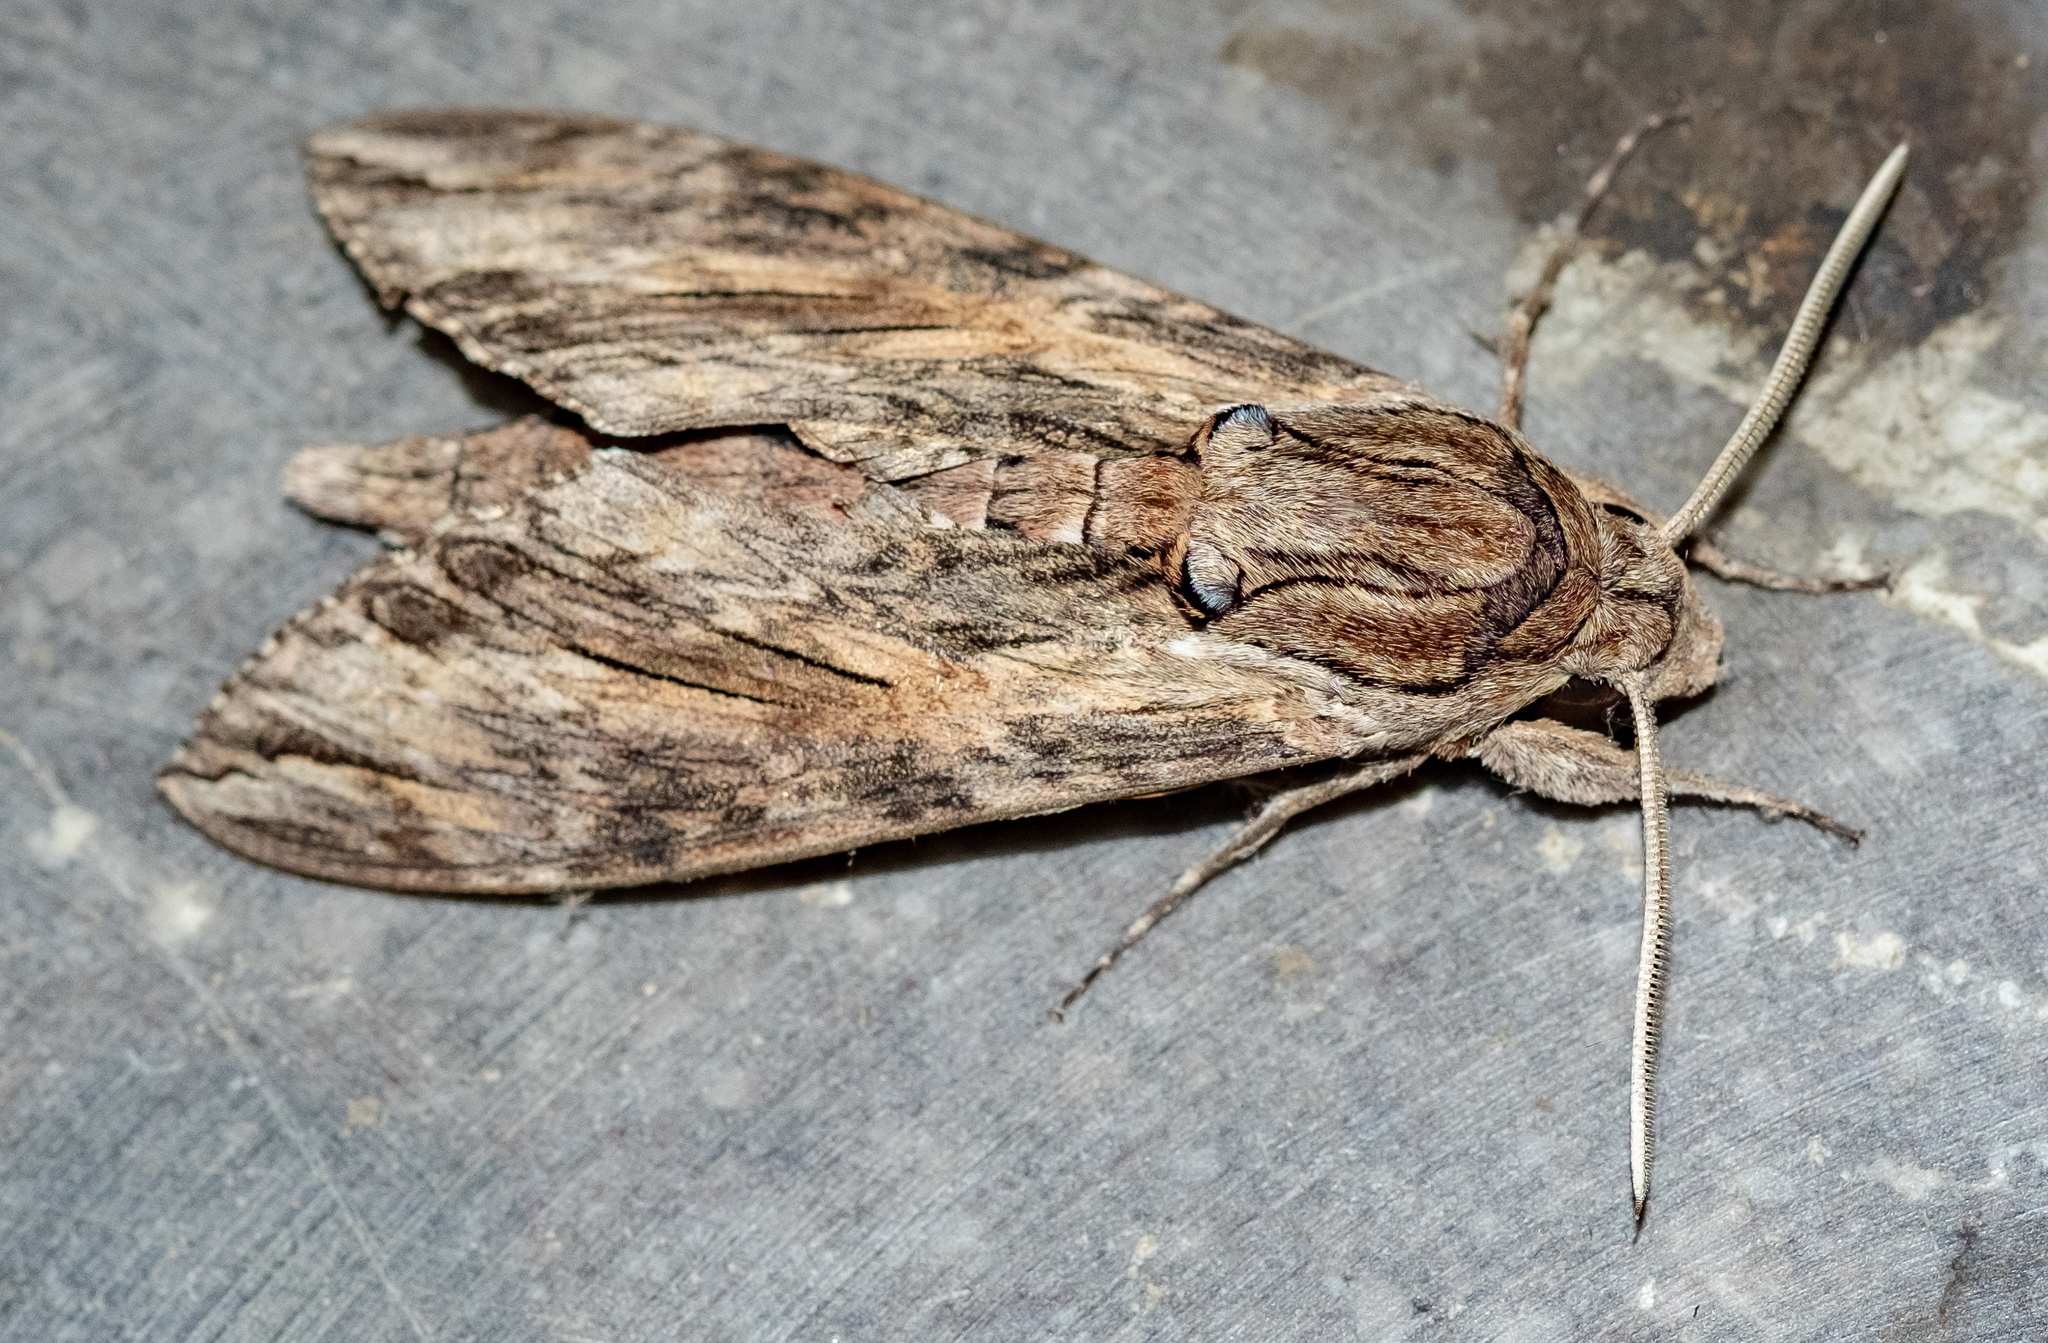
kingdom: Animalia
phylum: Arthropoda
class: Insecta
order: Lepidoptera
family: Sphingidae
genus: Agrius
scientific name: Agrius convolvuli
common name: Convolvulus hawkmoth
